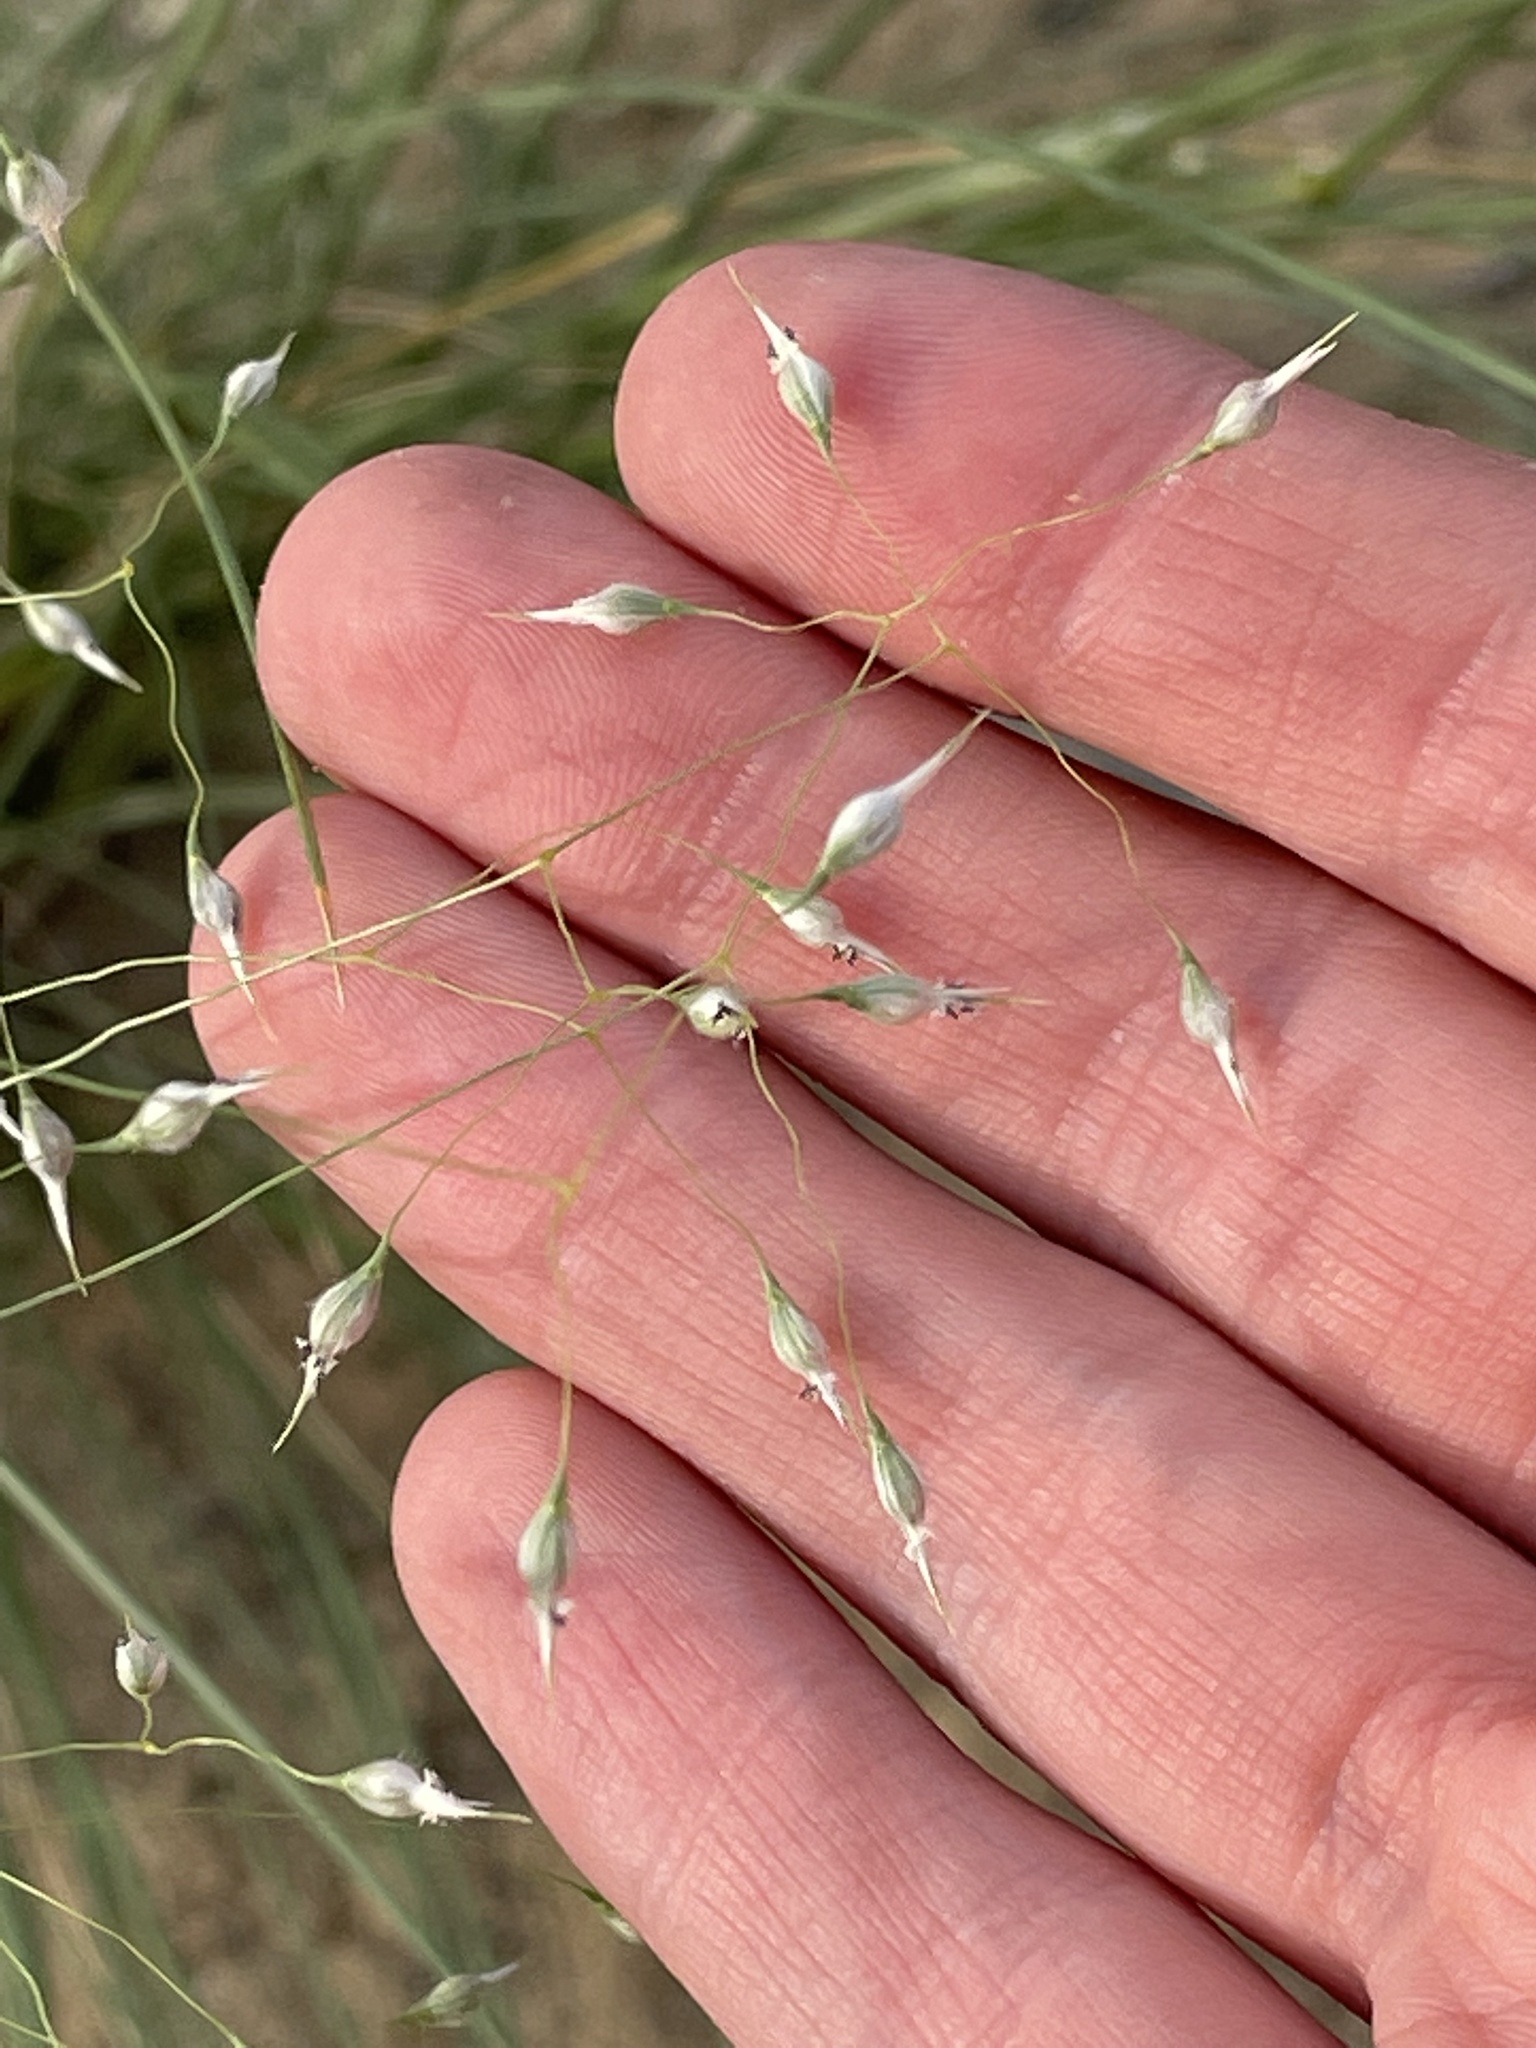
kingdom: Plantae
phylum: Tracheophyta
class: Liliopsida
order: Poales
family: Poaceae
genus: Eriocoma
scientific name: Eriocoma hymenoides
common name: Indian mountain ricegrass
